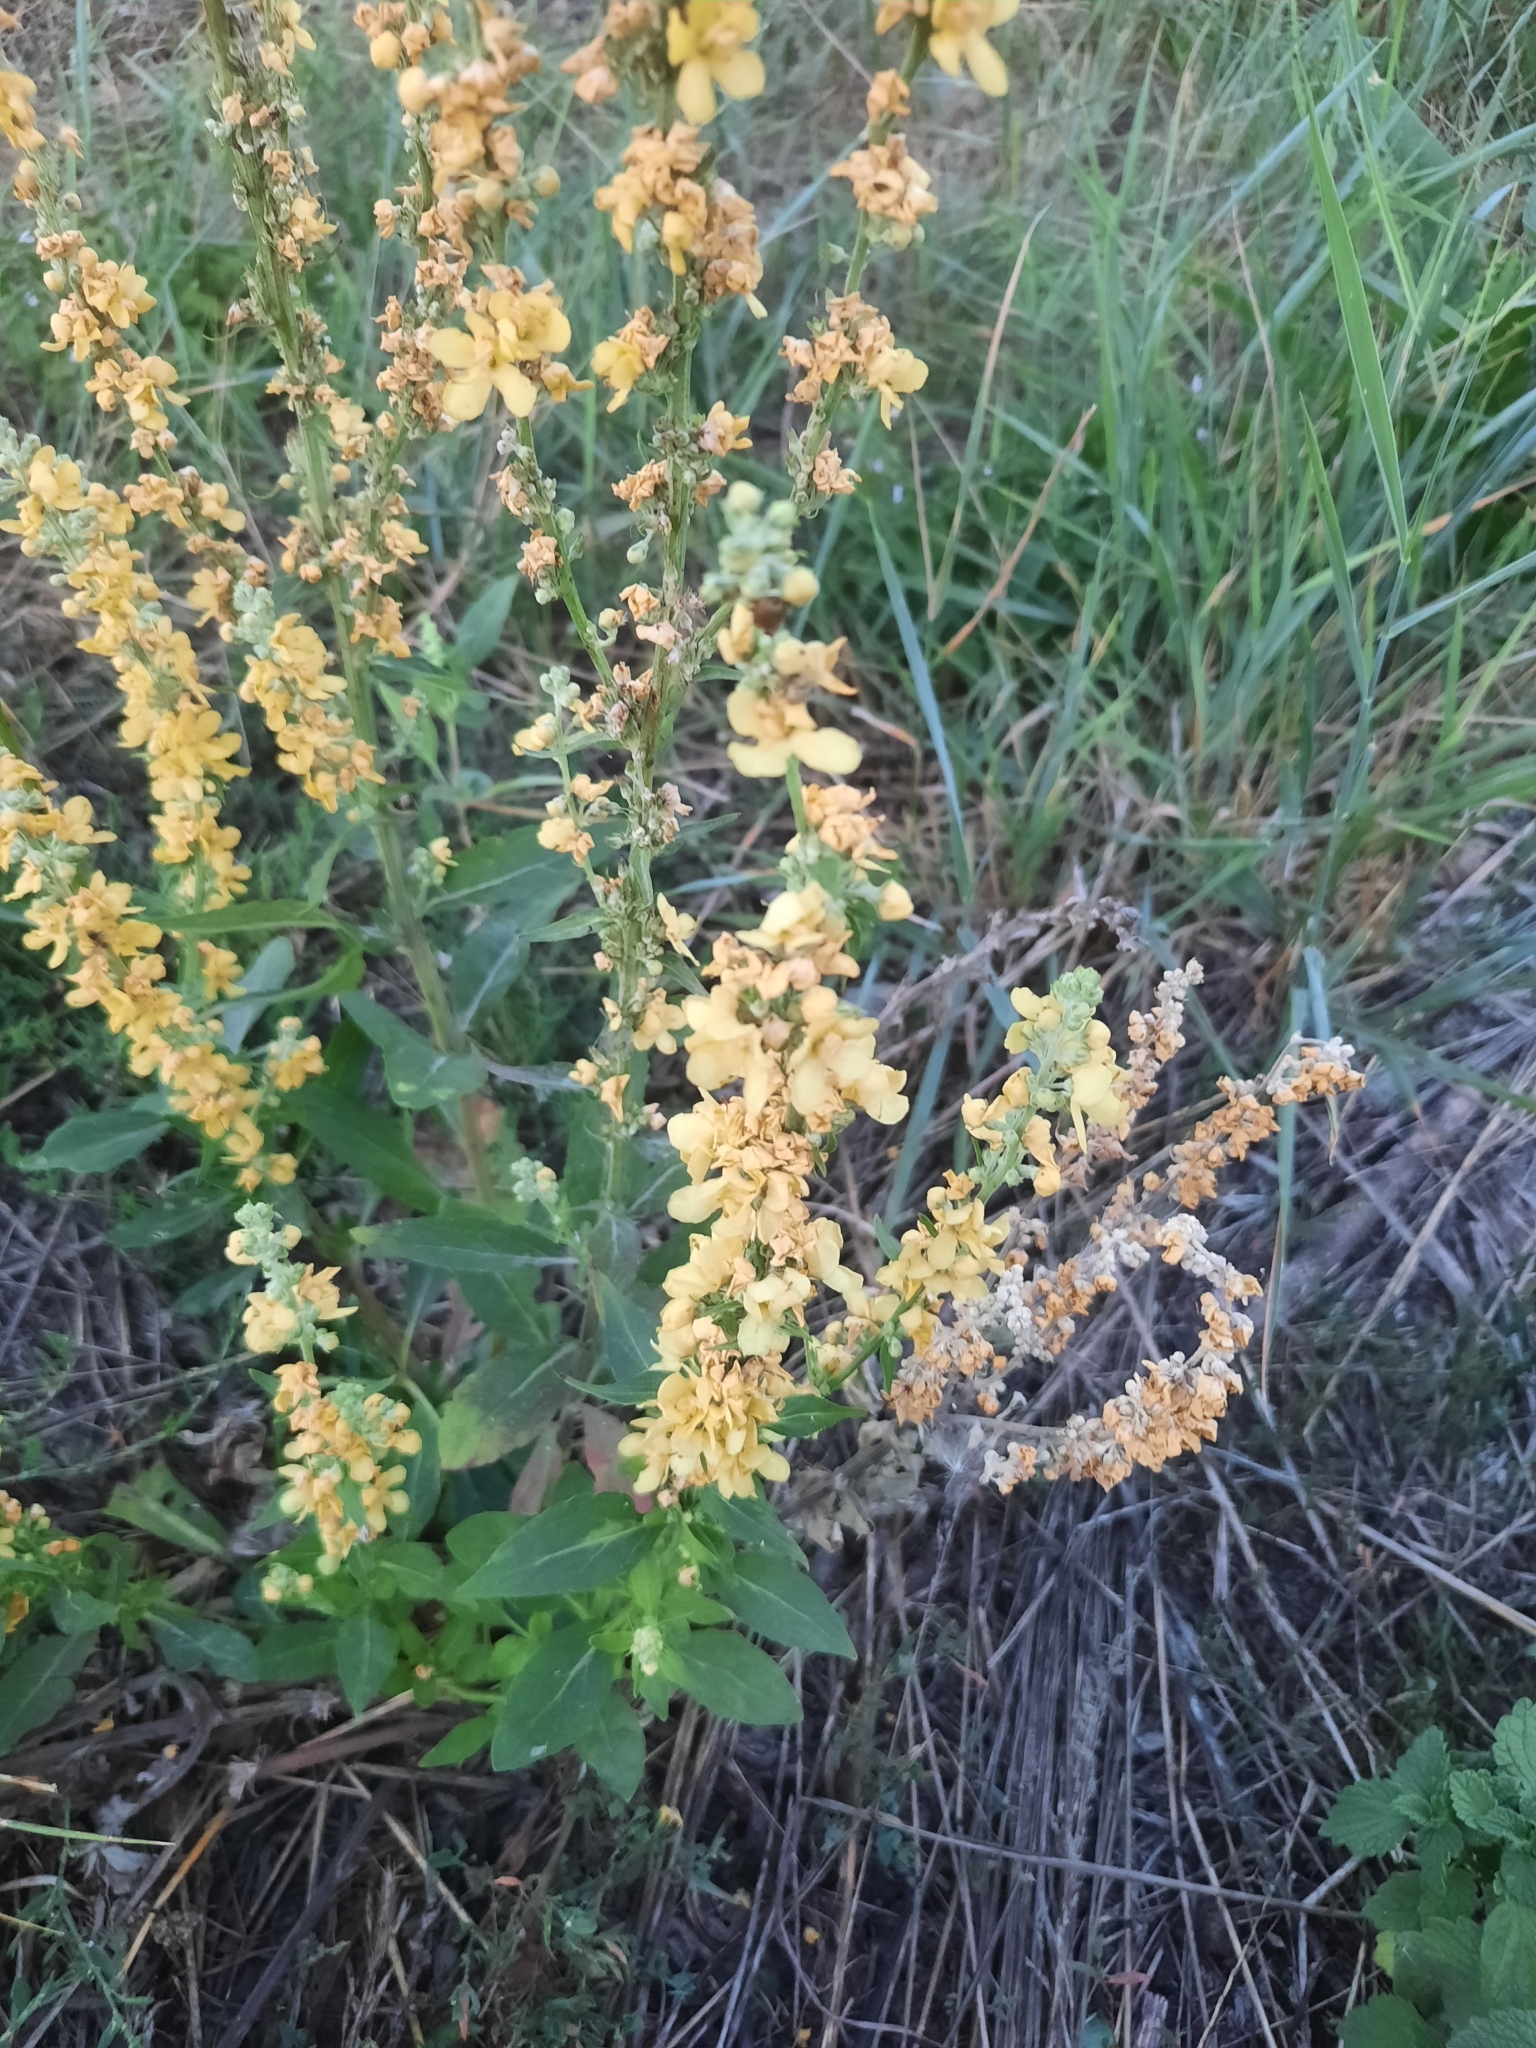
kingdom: Plantae
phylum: Tracheophyta
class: Magnoliopsida
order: Lamiales
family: Scrophulariaceae
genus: Verbascum
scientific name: Verbascum lychnitis
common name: White mullein
